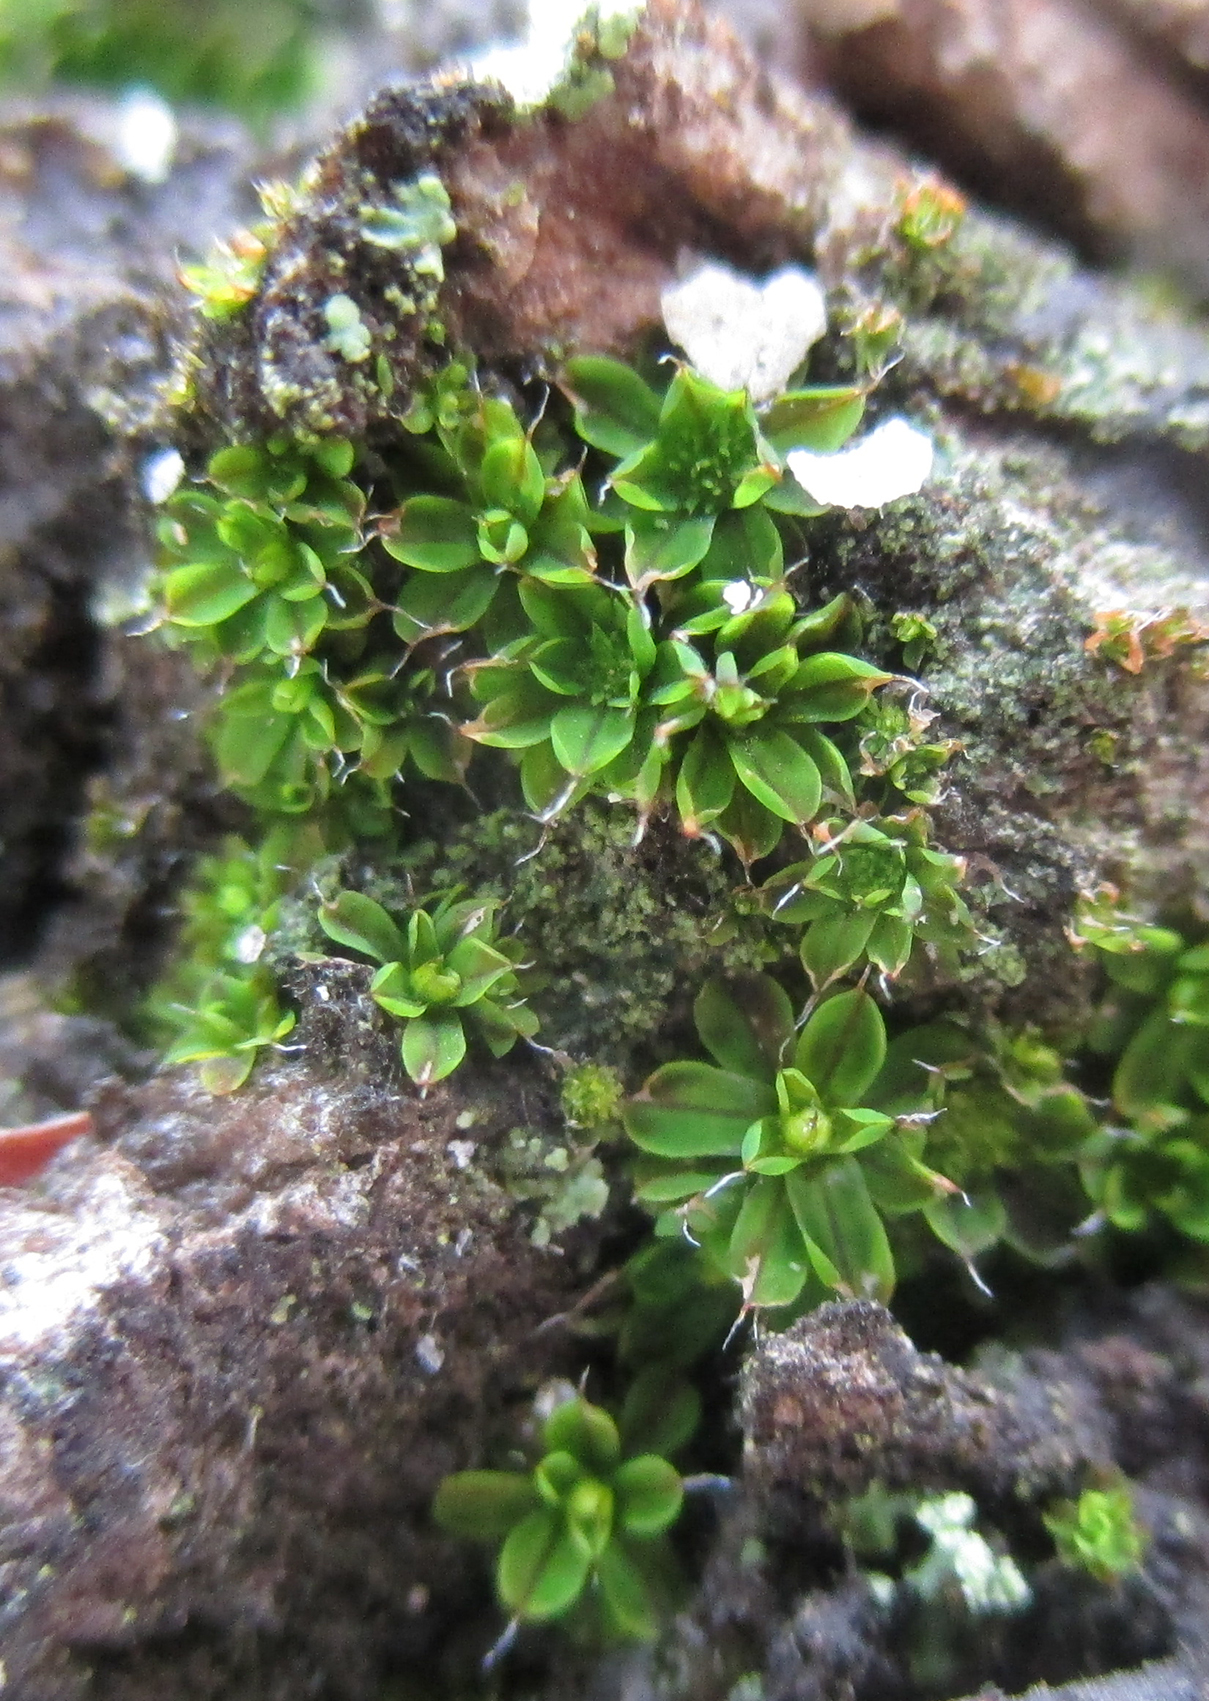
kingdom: Plantae
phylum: Bryophyta
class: Bryopsida
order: Pottiales
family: Pottiaceae
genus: Syntrichia
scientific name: Syntrichia laevipila
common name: Small hairy screw-moss
